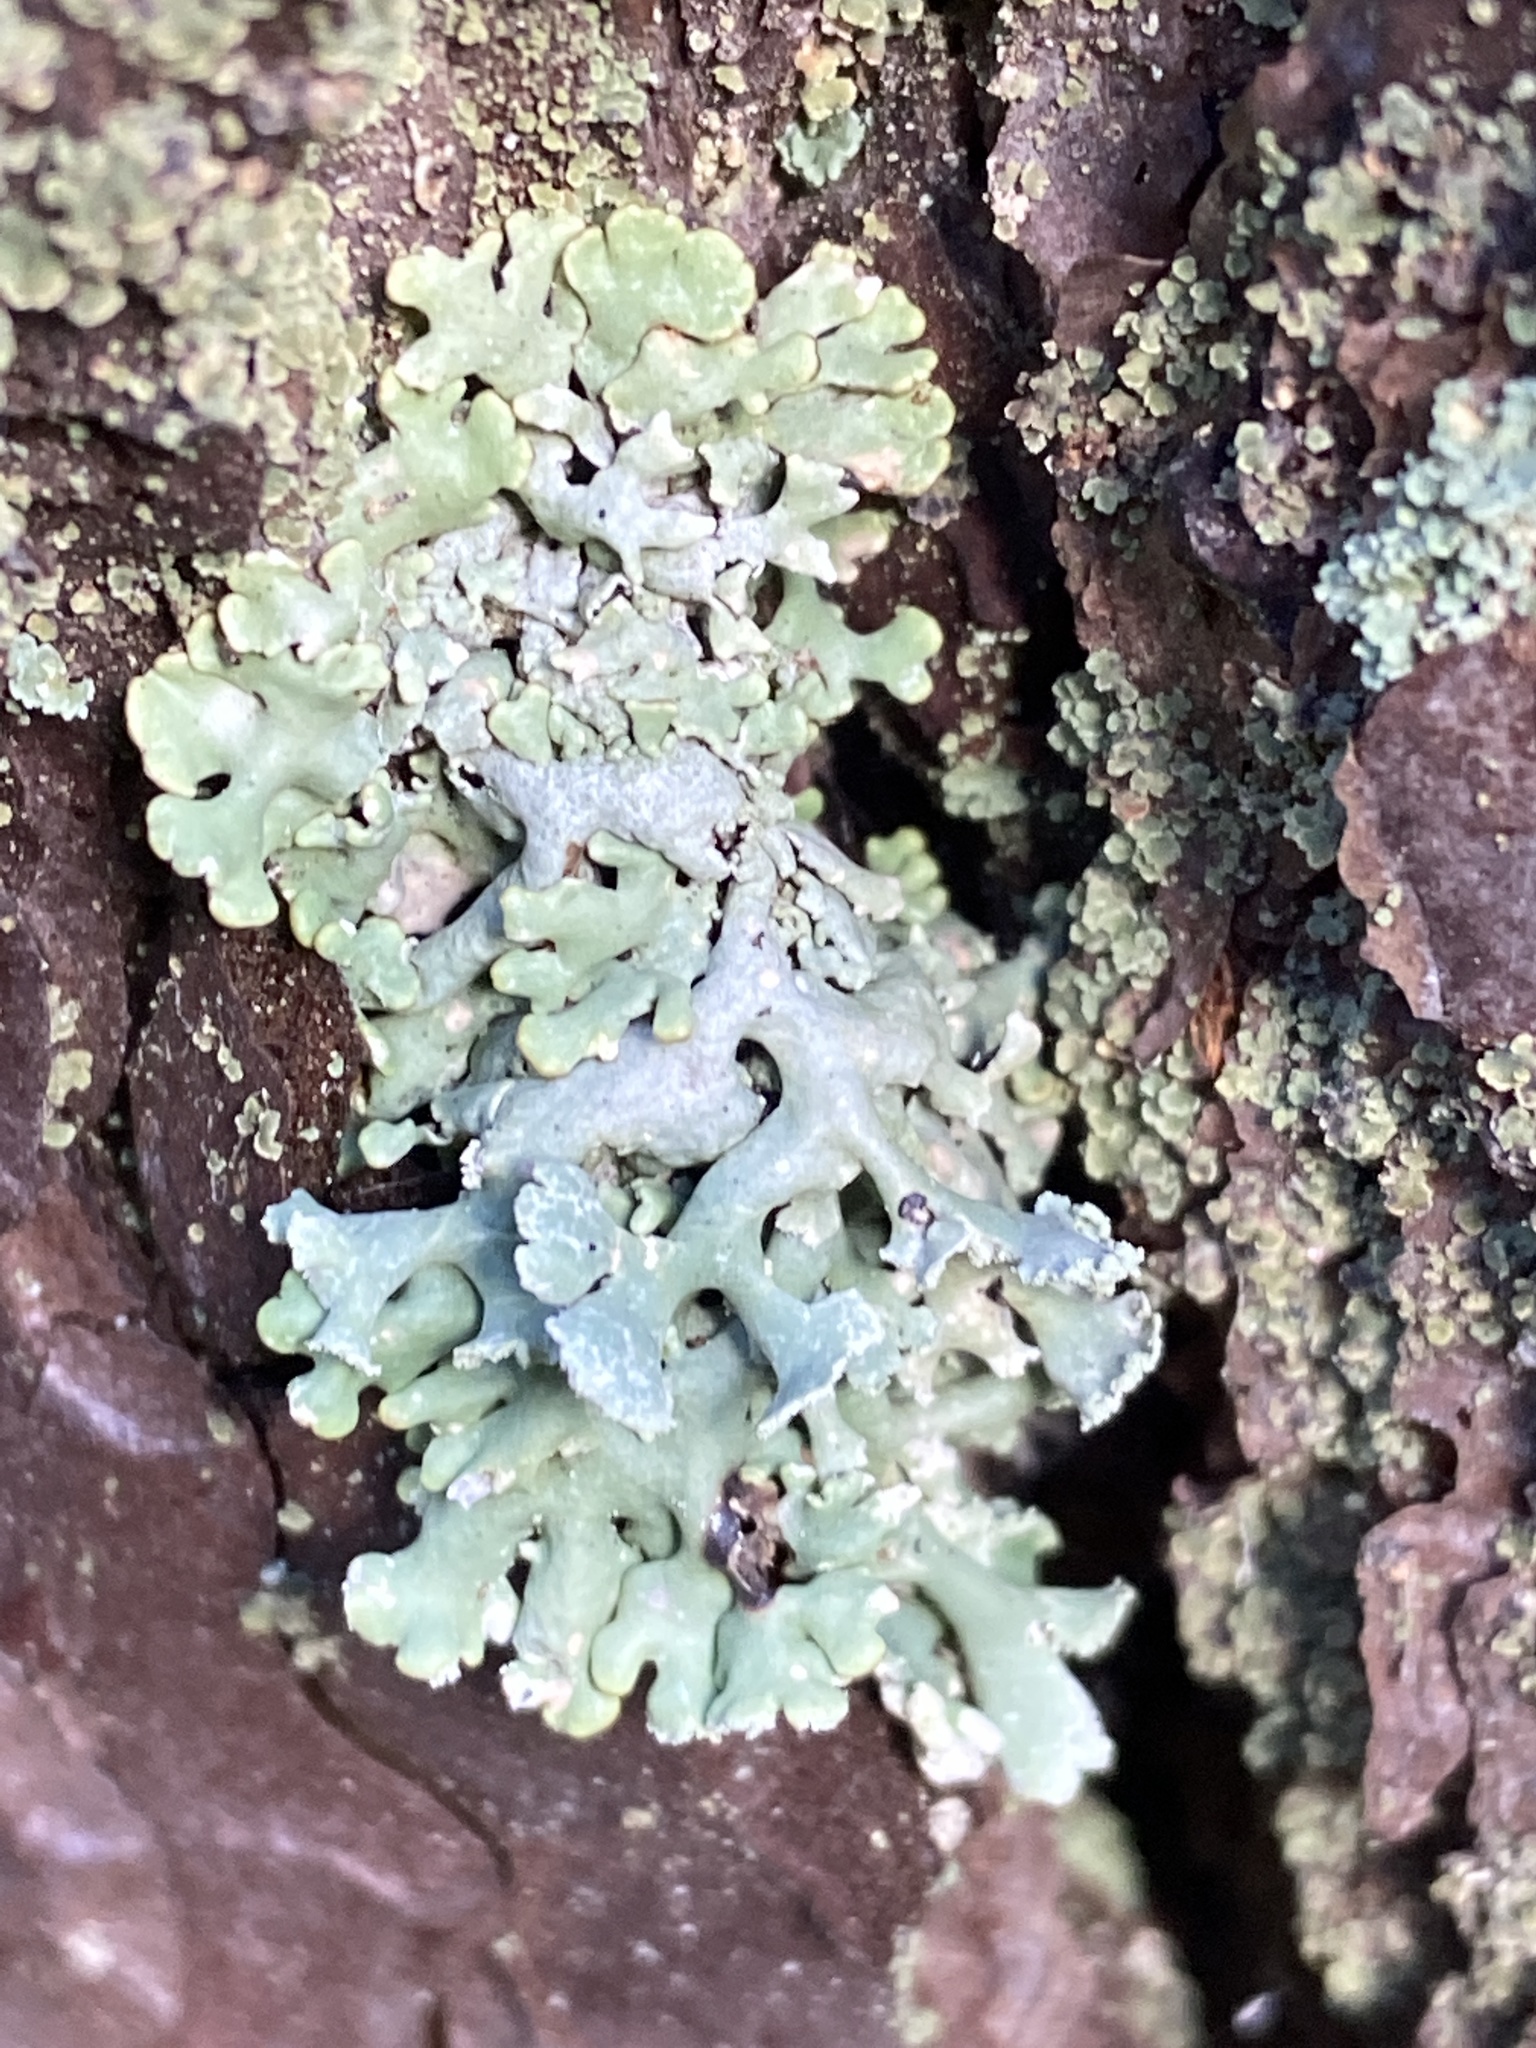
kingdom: Fungi
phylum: Ascomycota
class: Lecanoromycetes
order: Lecanorales
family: Parmeliaceae
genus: Hypogymnia
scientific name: Hypogymnia physodes
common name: Dark crottle
